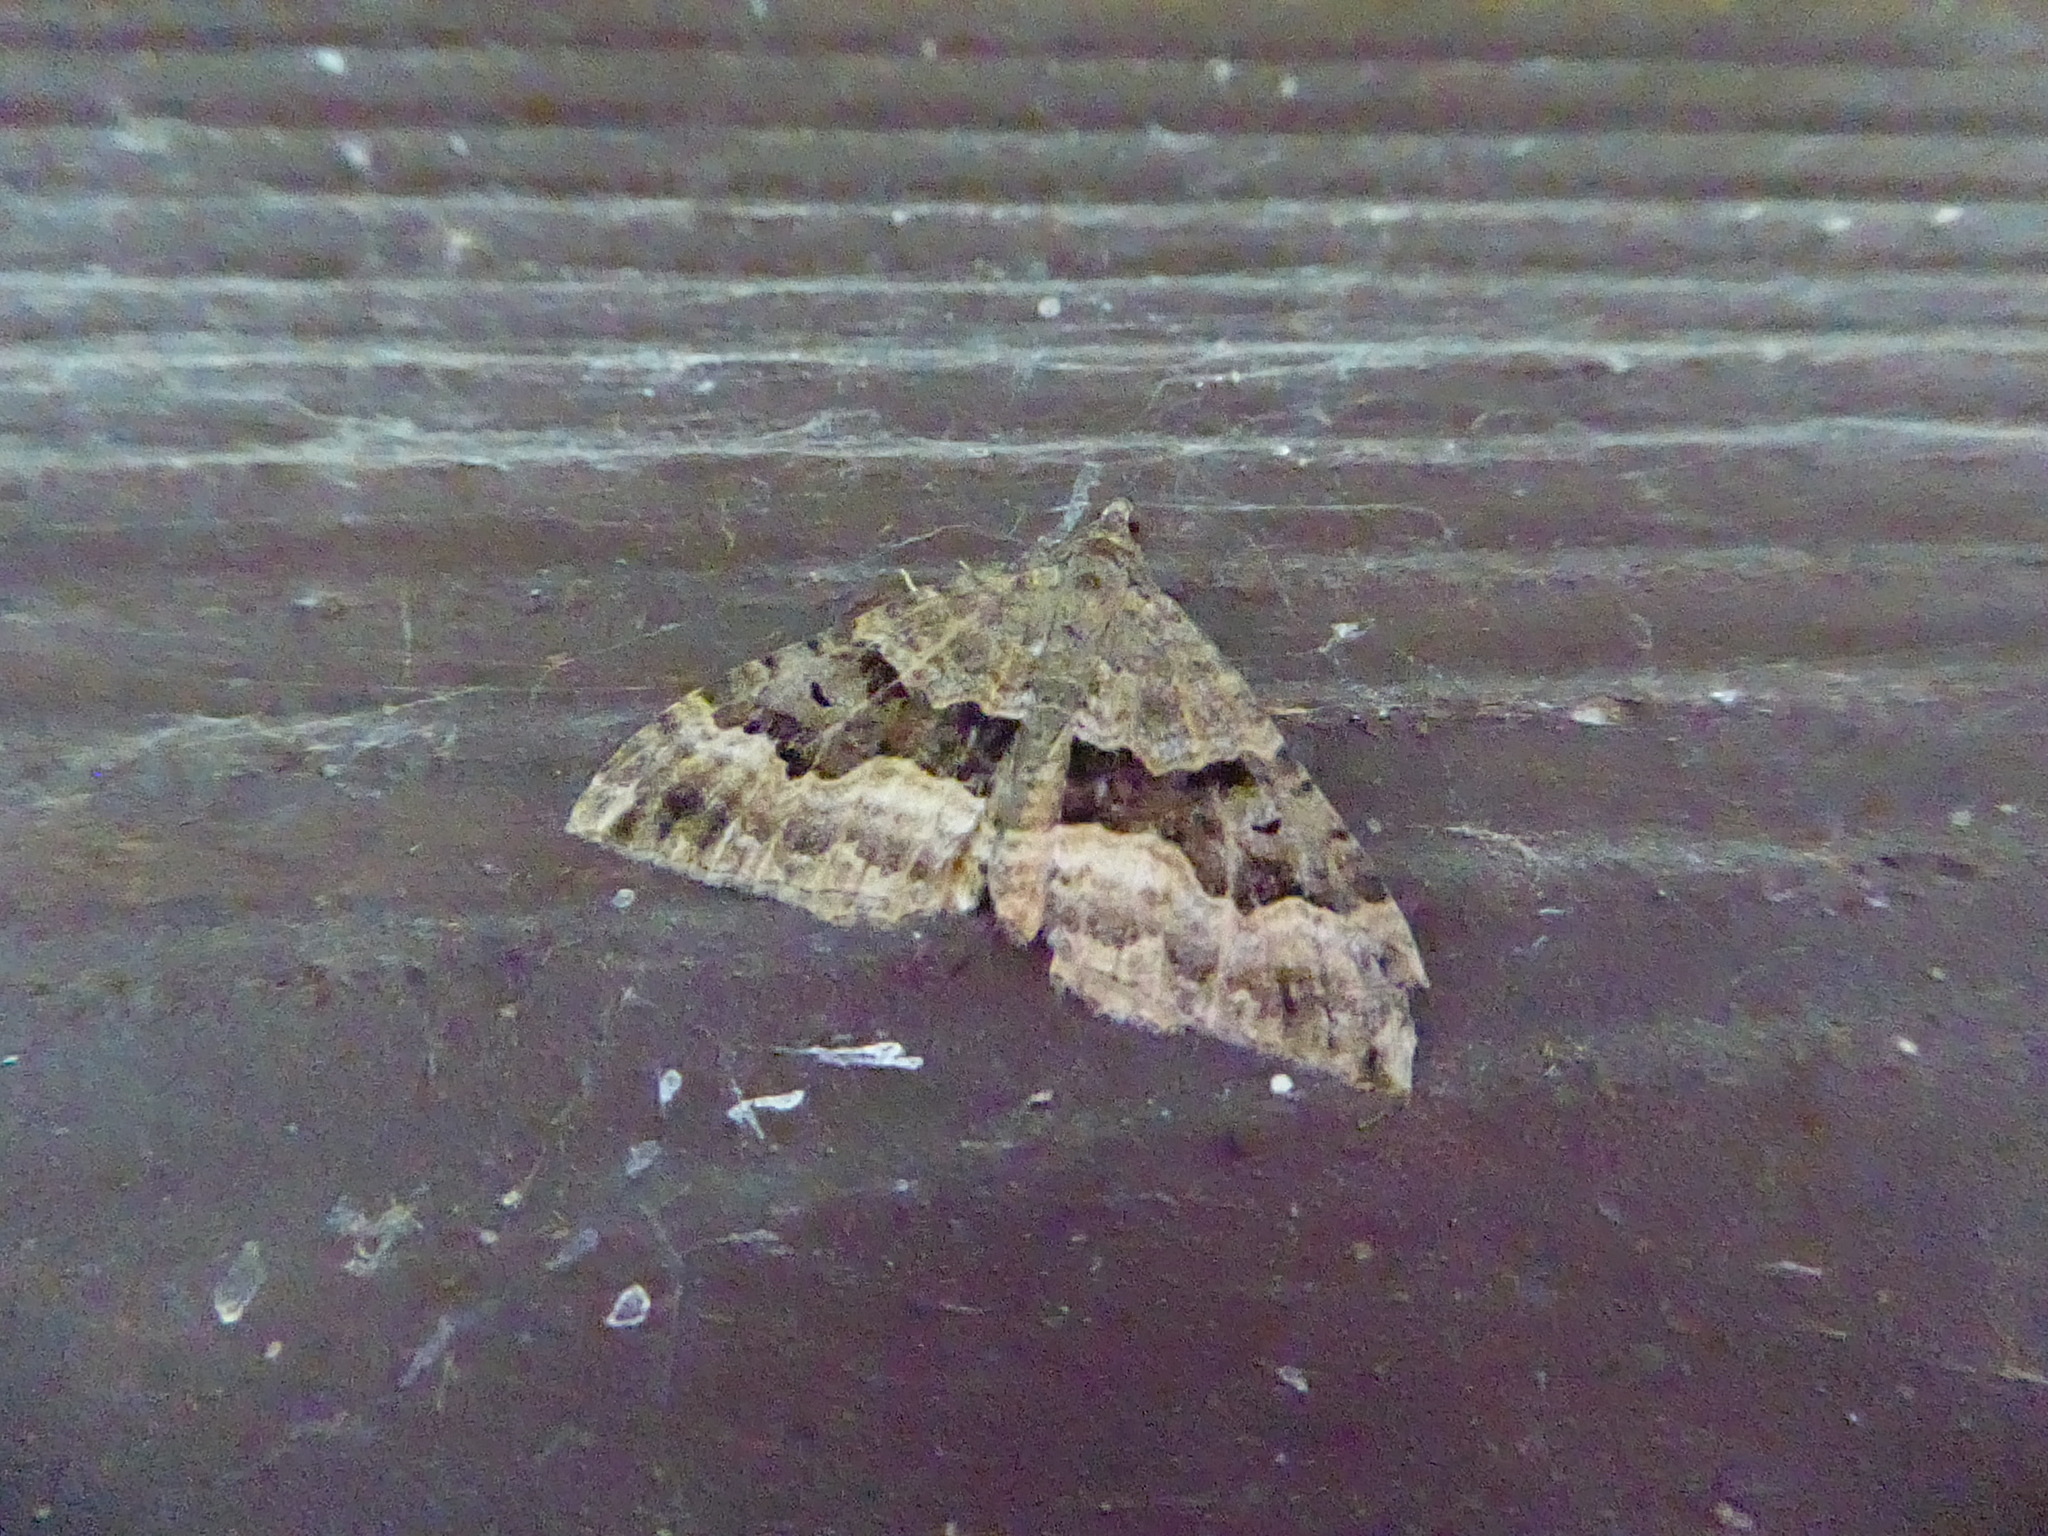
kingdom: Animalia
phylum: Arthropoda
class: Insecta
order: Lepidoptera
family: Geometridae
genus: Hydriomena
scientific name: Hydriomena deltoidata
